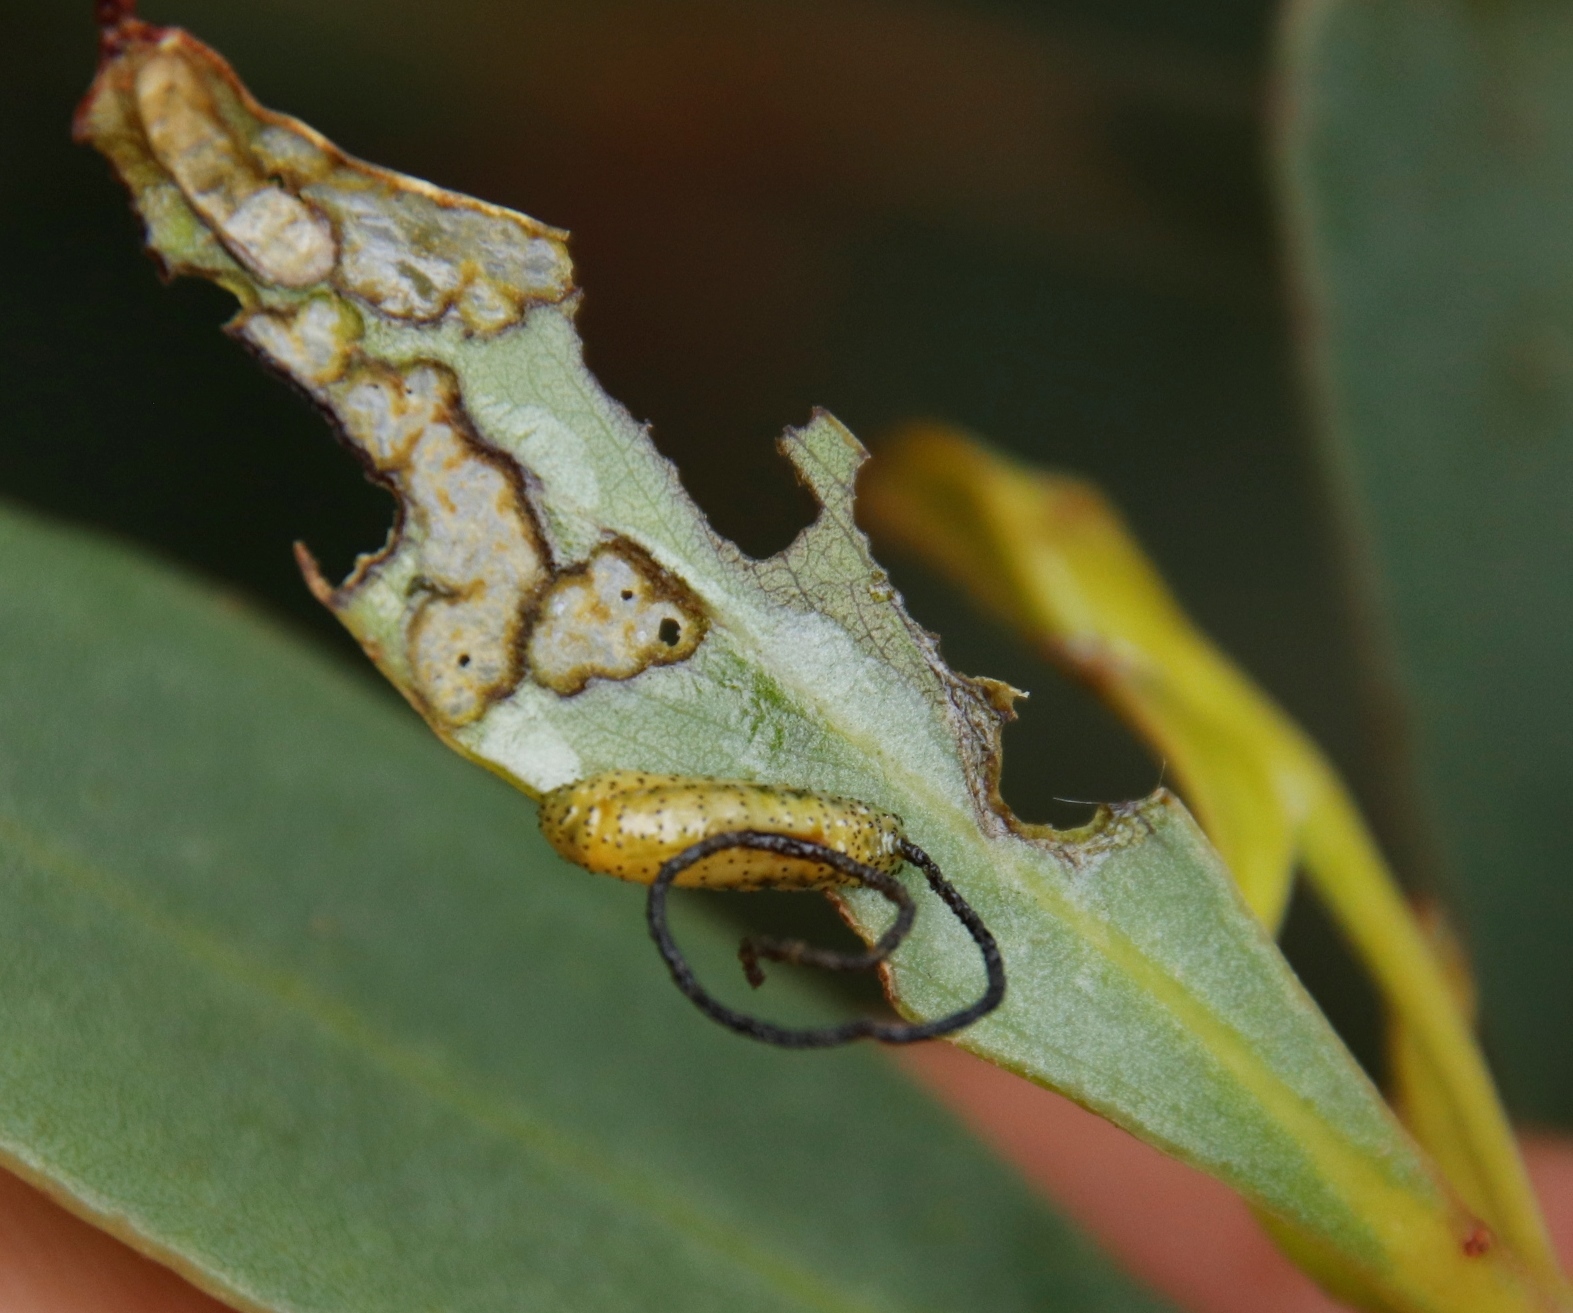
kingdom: Animalia
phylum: Arthropoda
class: Insecta
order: Coleoptera
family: Curculionidae
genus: Gonipterus
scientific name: Gonipterus
